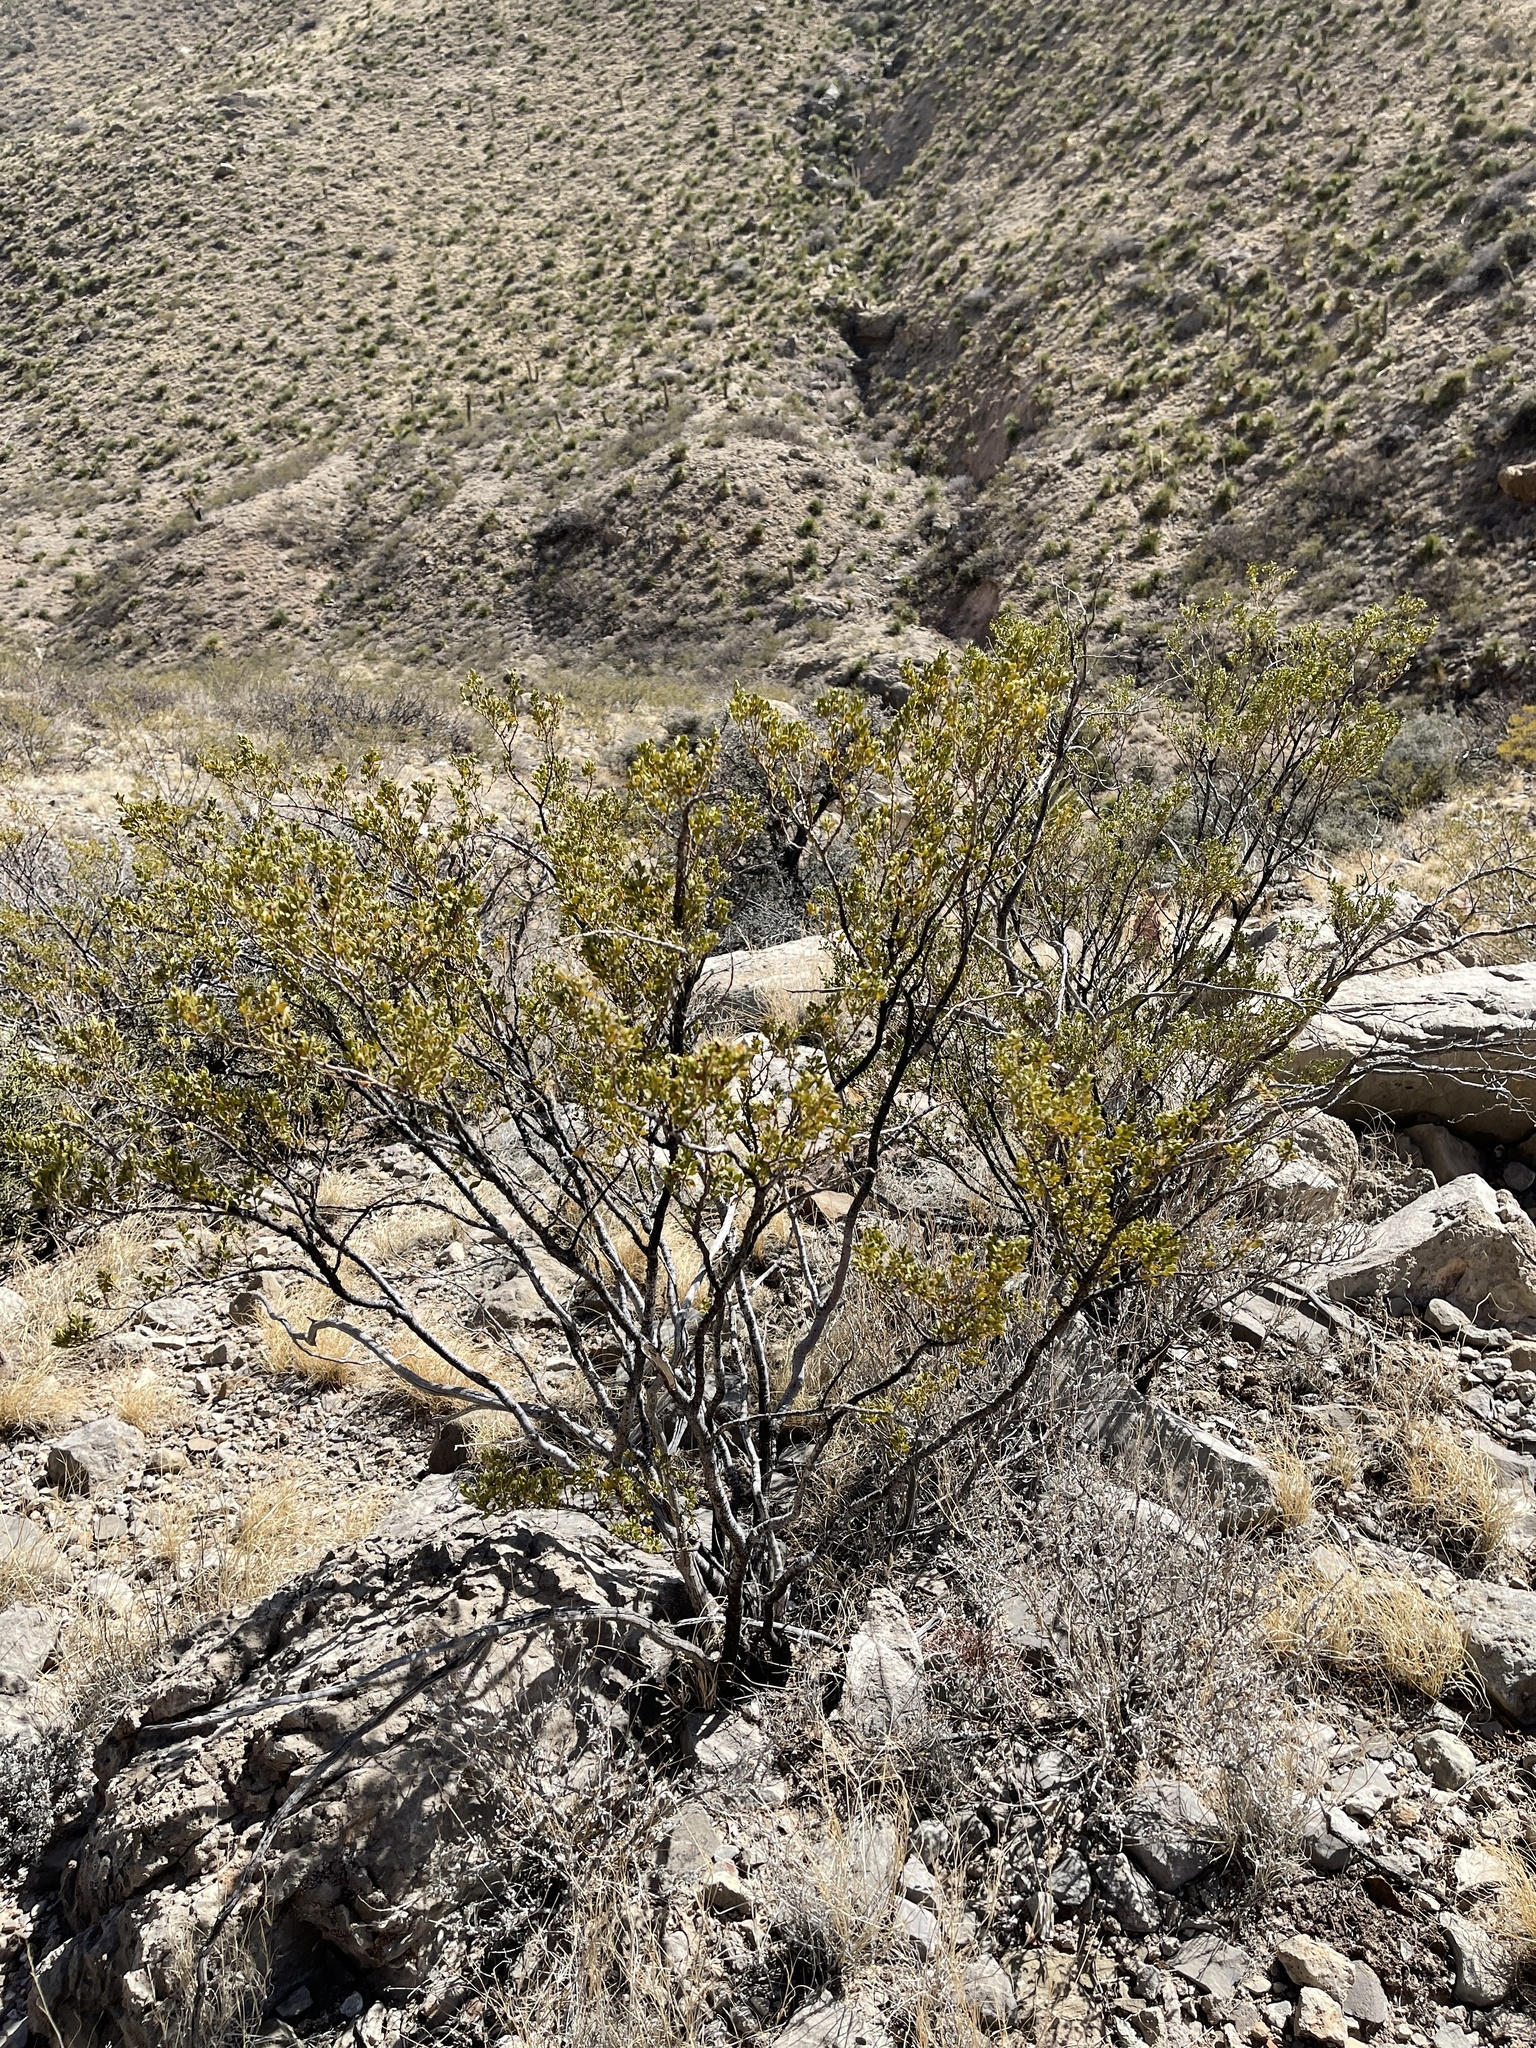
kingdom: Plantae
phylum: Tracheophyta
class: Magnoliopsida
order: Zygophyllales
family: Zygophyllaceae
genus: Larrea
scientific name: Larrea tridentata
